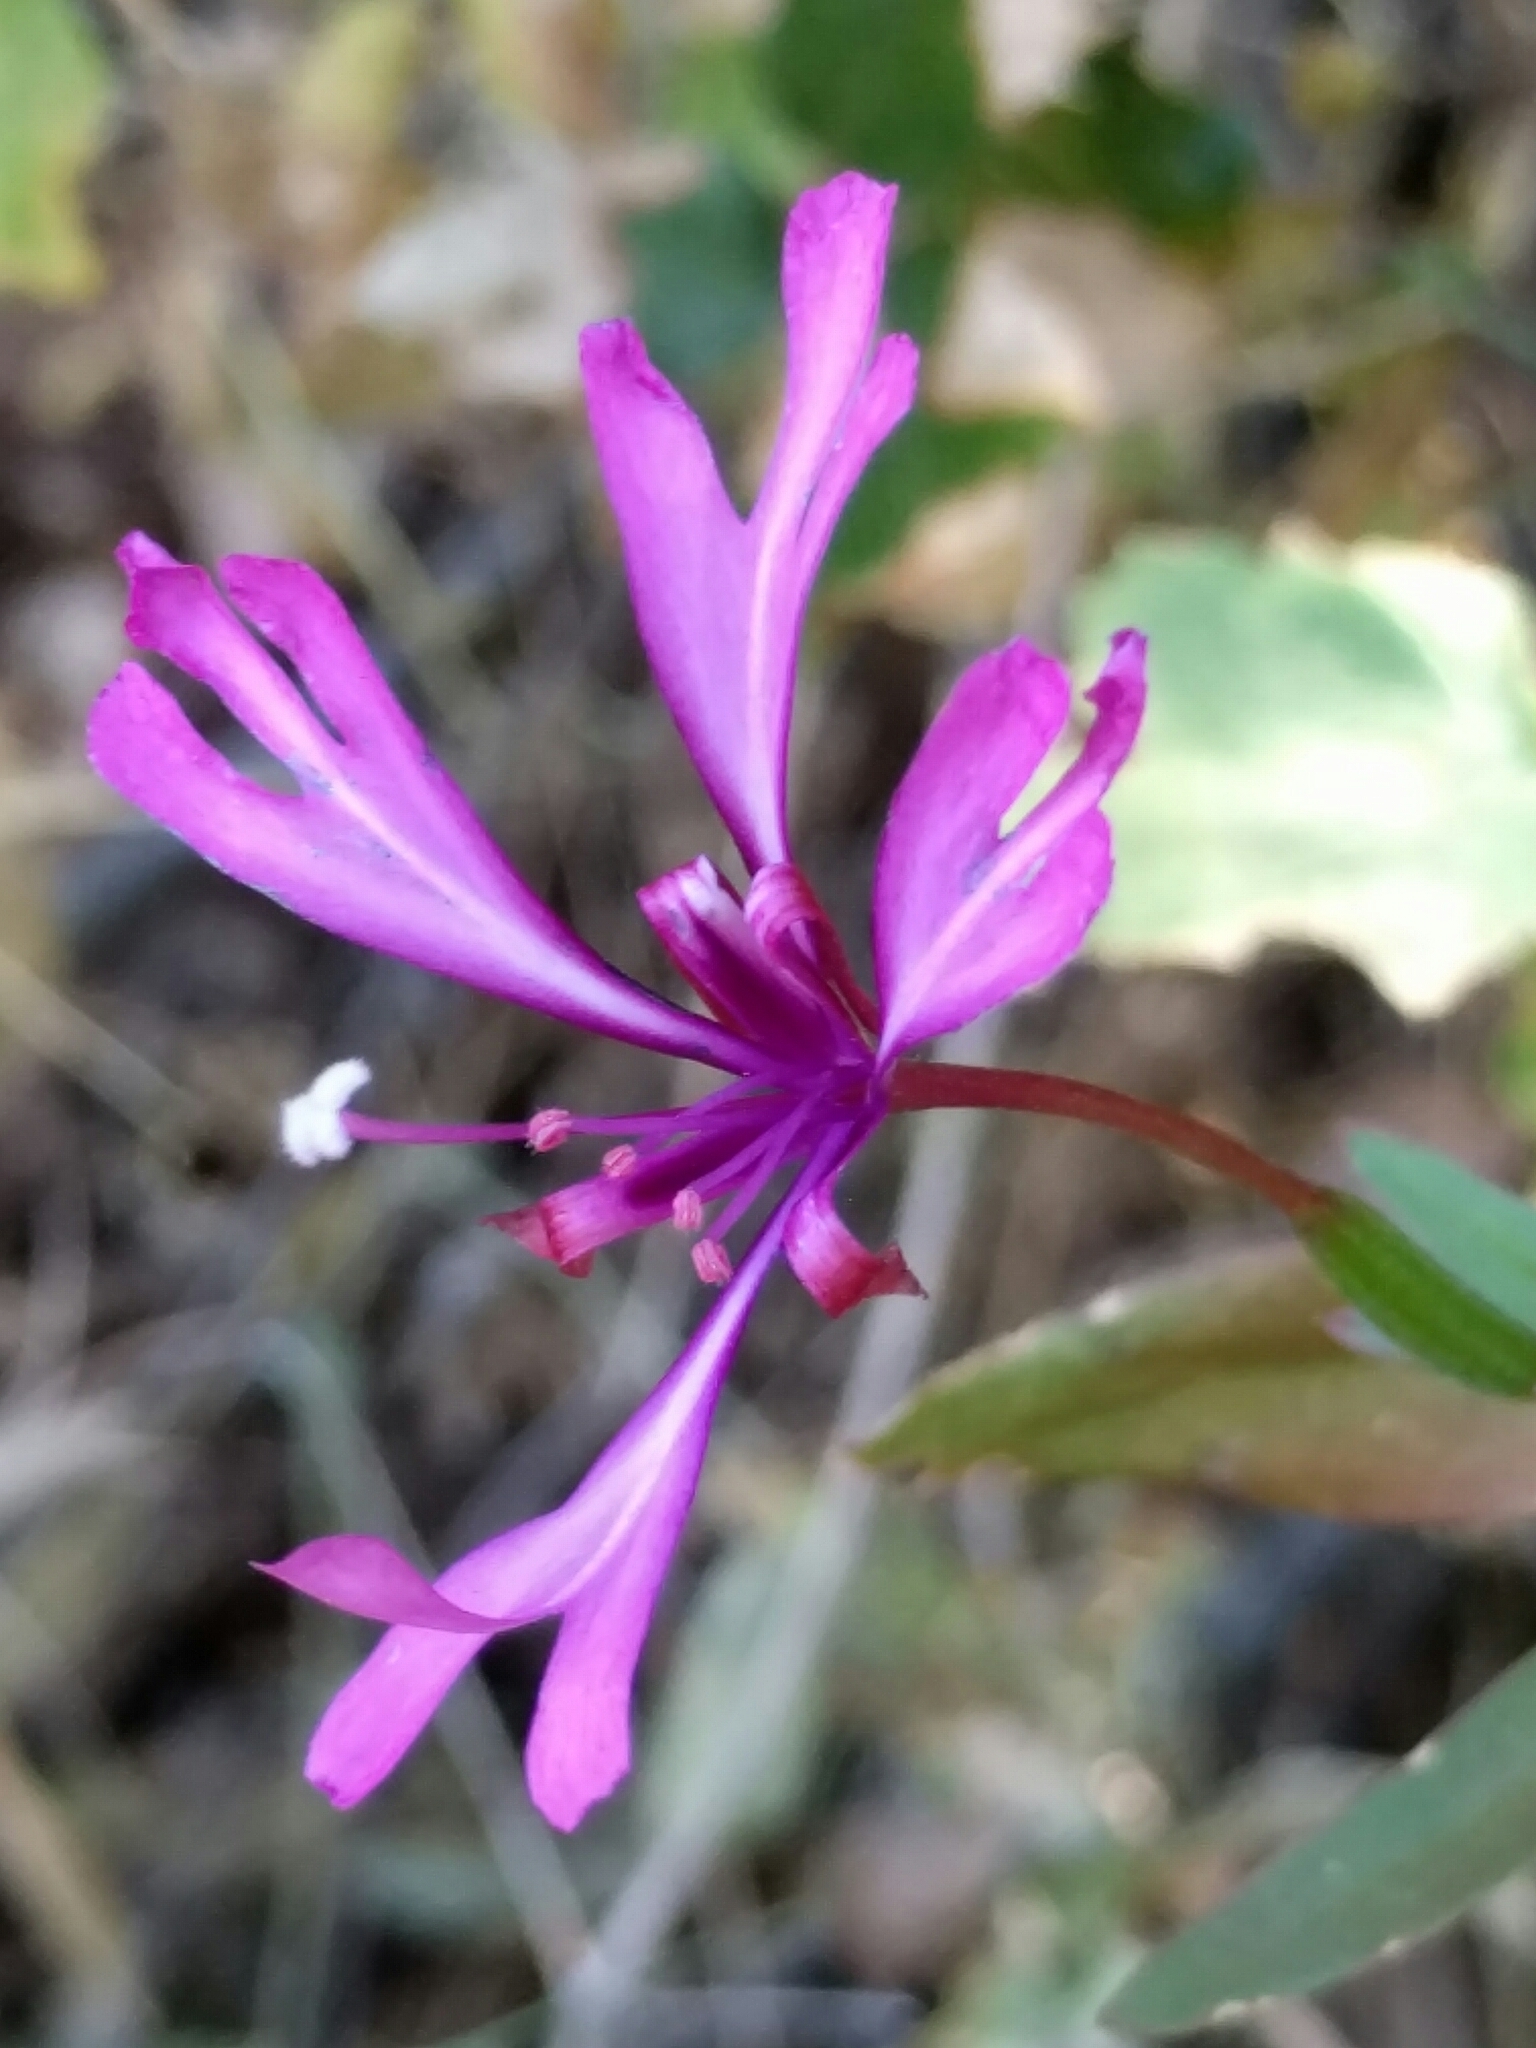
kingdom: Plantae
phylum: Tracheophyta
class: Magnoliopsida
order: Myrtales
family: Onagraceae
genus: Clarkia
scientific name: Clarkia concinna
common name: Red-ribbons
